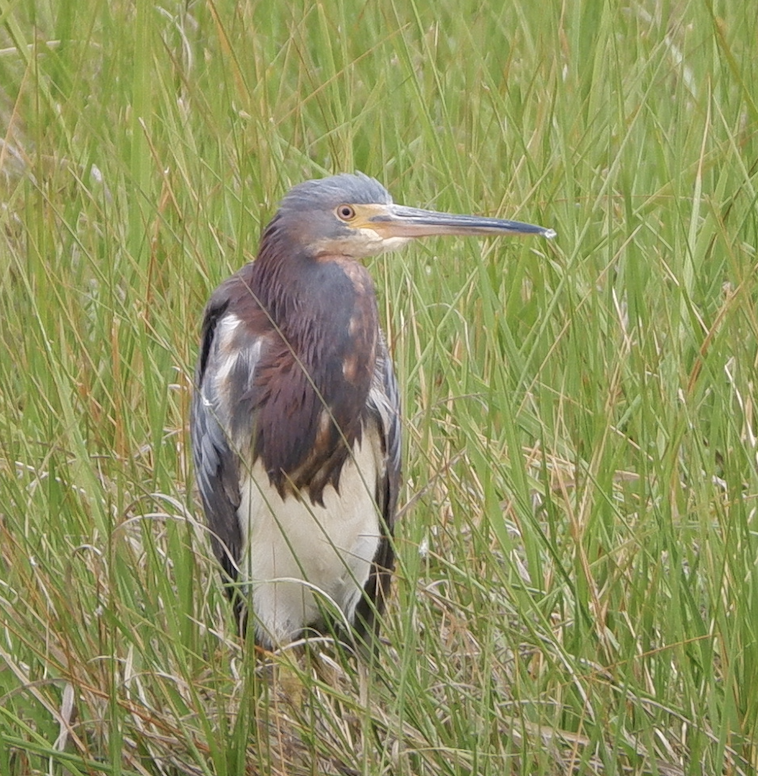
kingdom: Animalia
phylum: Chordata
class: Aves
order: Pelecaniformes
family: Ardeidae
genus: Egretta
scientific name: Egretta tricolor
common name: Tricolored heron
